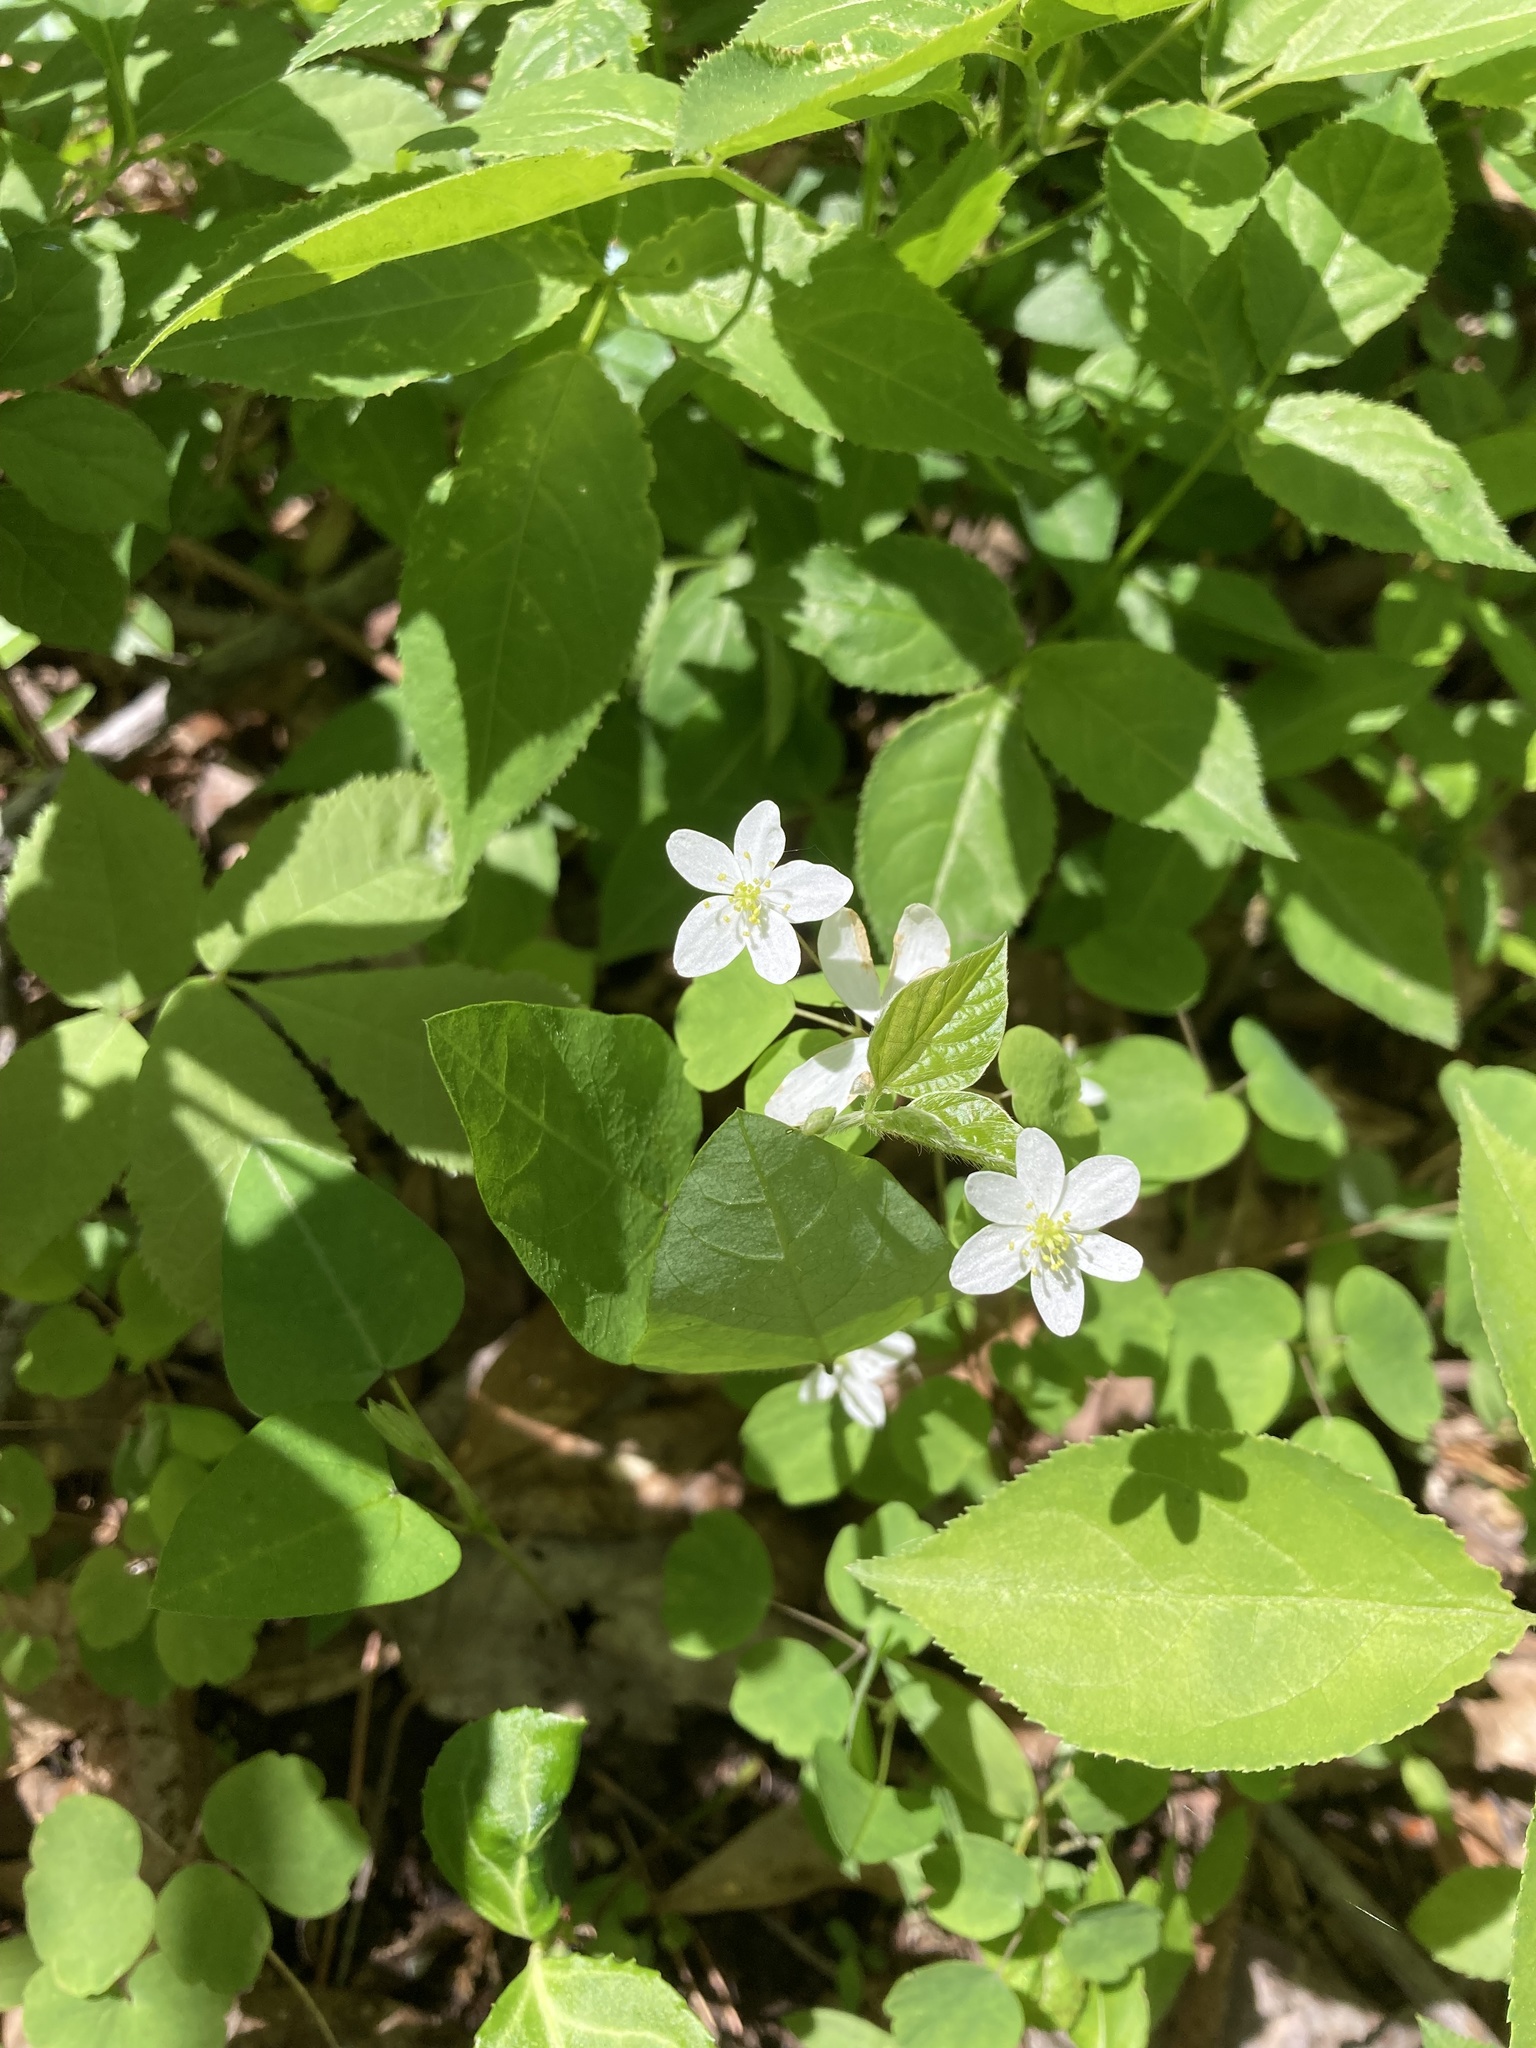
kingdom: Plantae
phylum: Tracheophyta
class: Magnoliopsida
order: Ranunculales
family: Ranunculaceae
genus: Thalictrum
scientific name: Thalictrum thalictroides
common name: Rue-anemone
